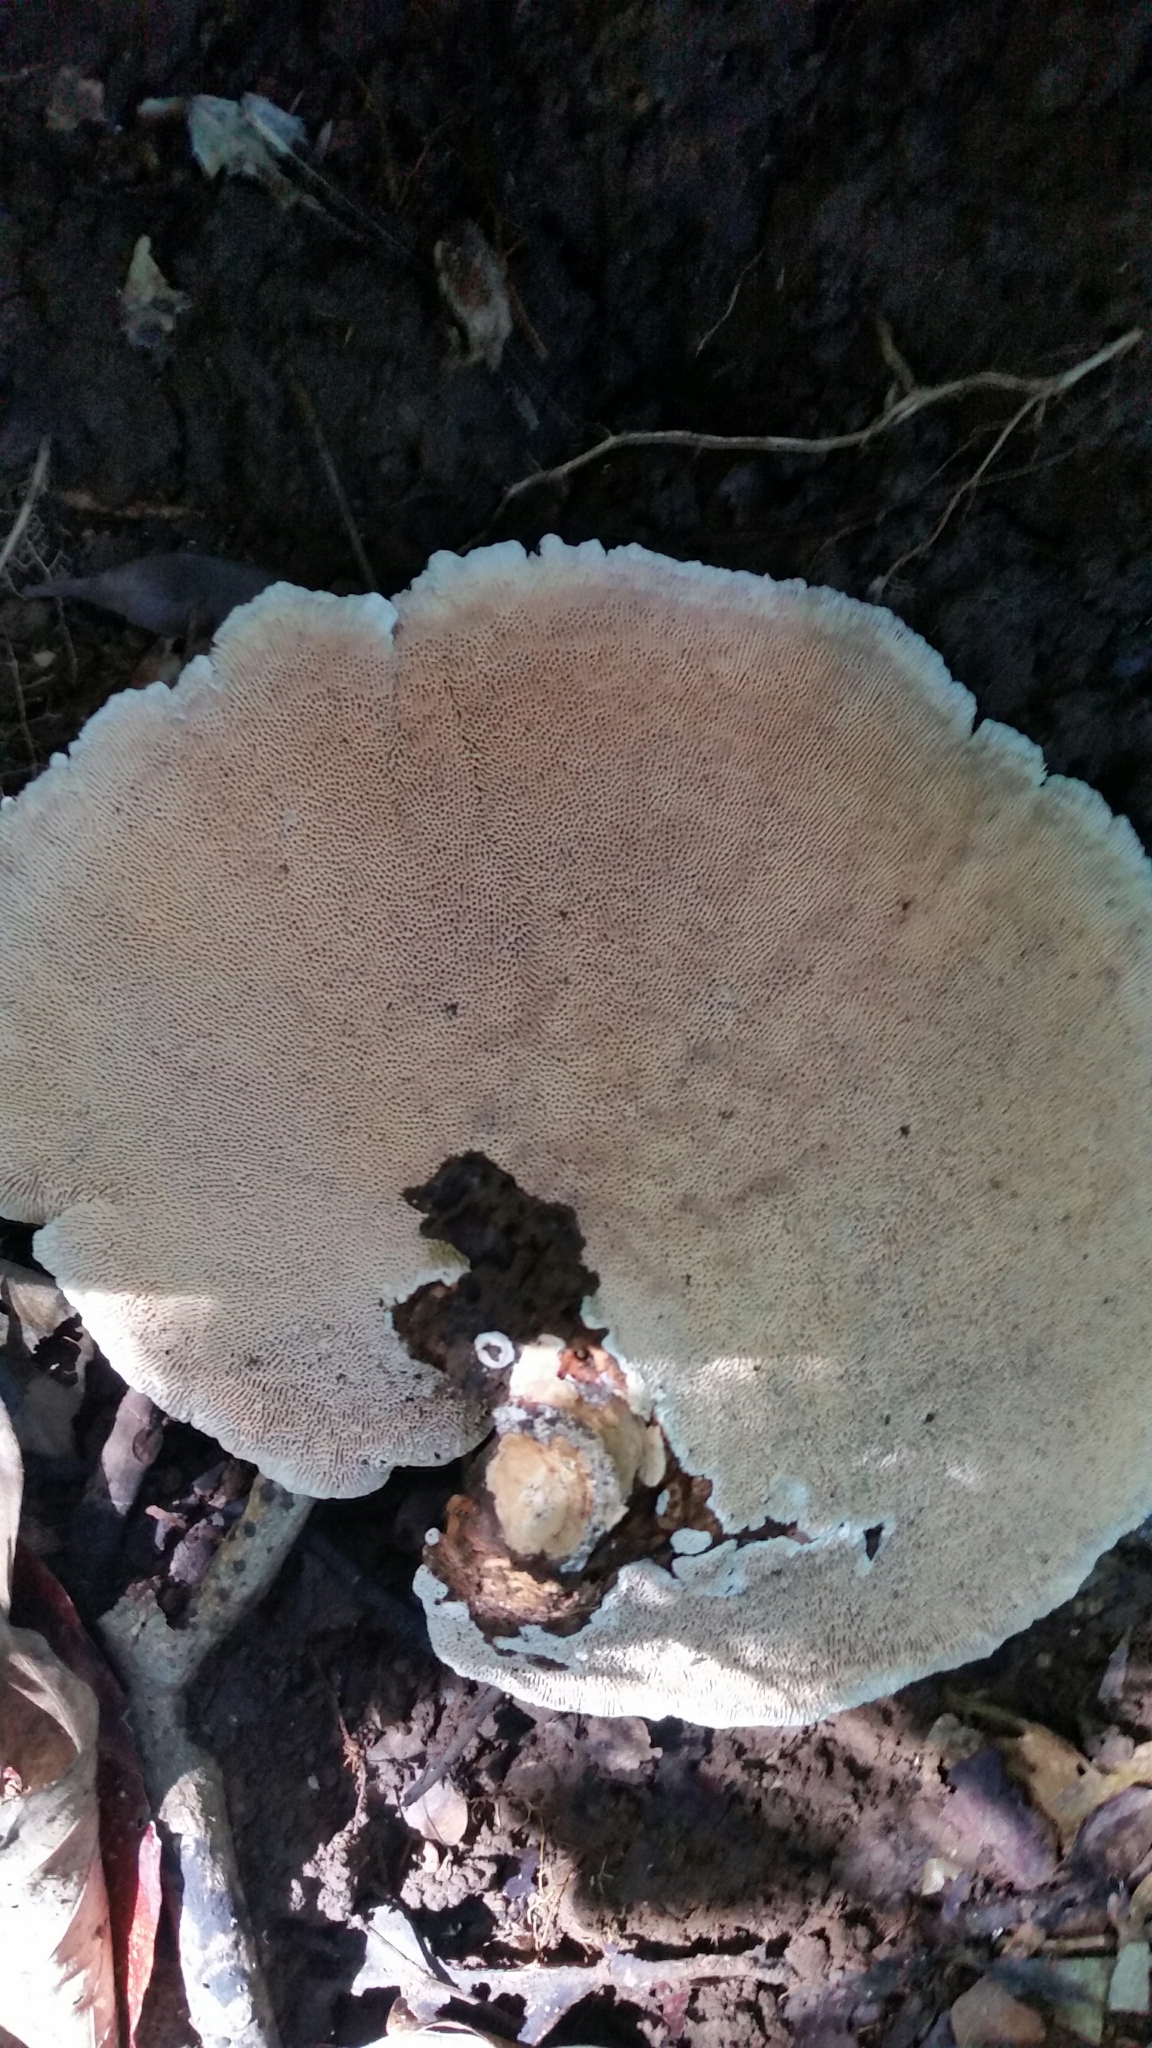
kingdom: Fungi
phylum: Basidiomycota
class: Agaricomycetes
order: Polyporales
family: Polyporaceae
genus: Cubamyces
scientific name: Cubamyces flavidus
